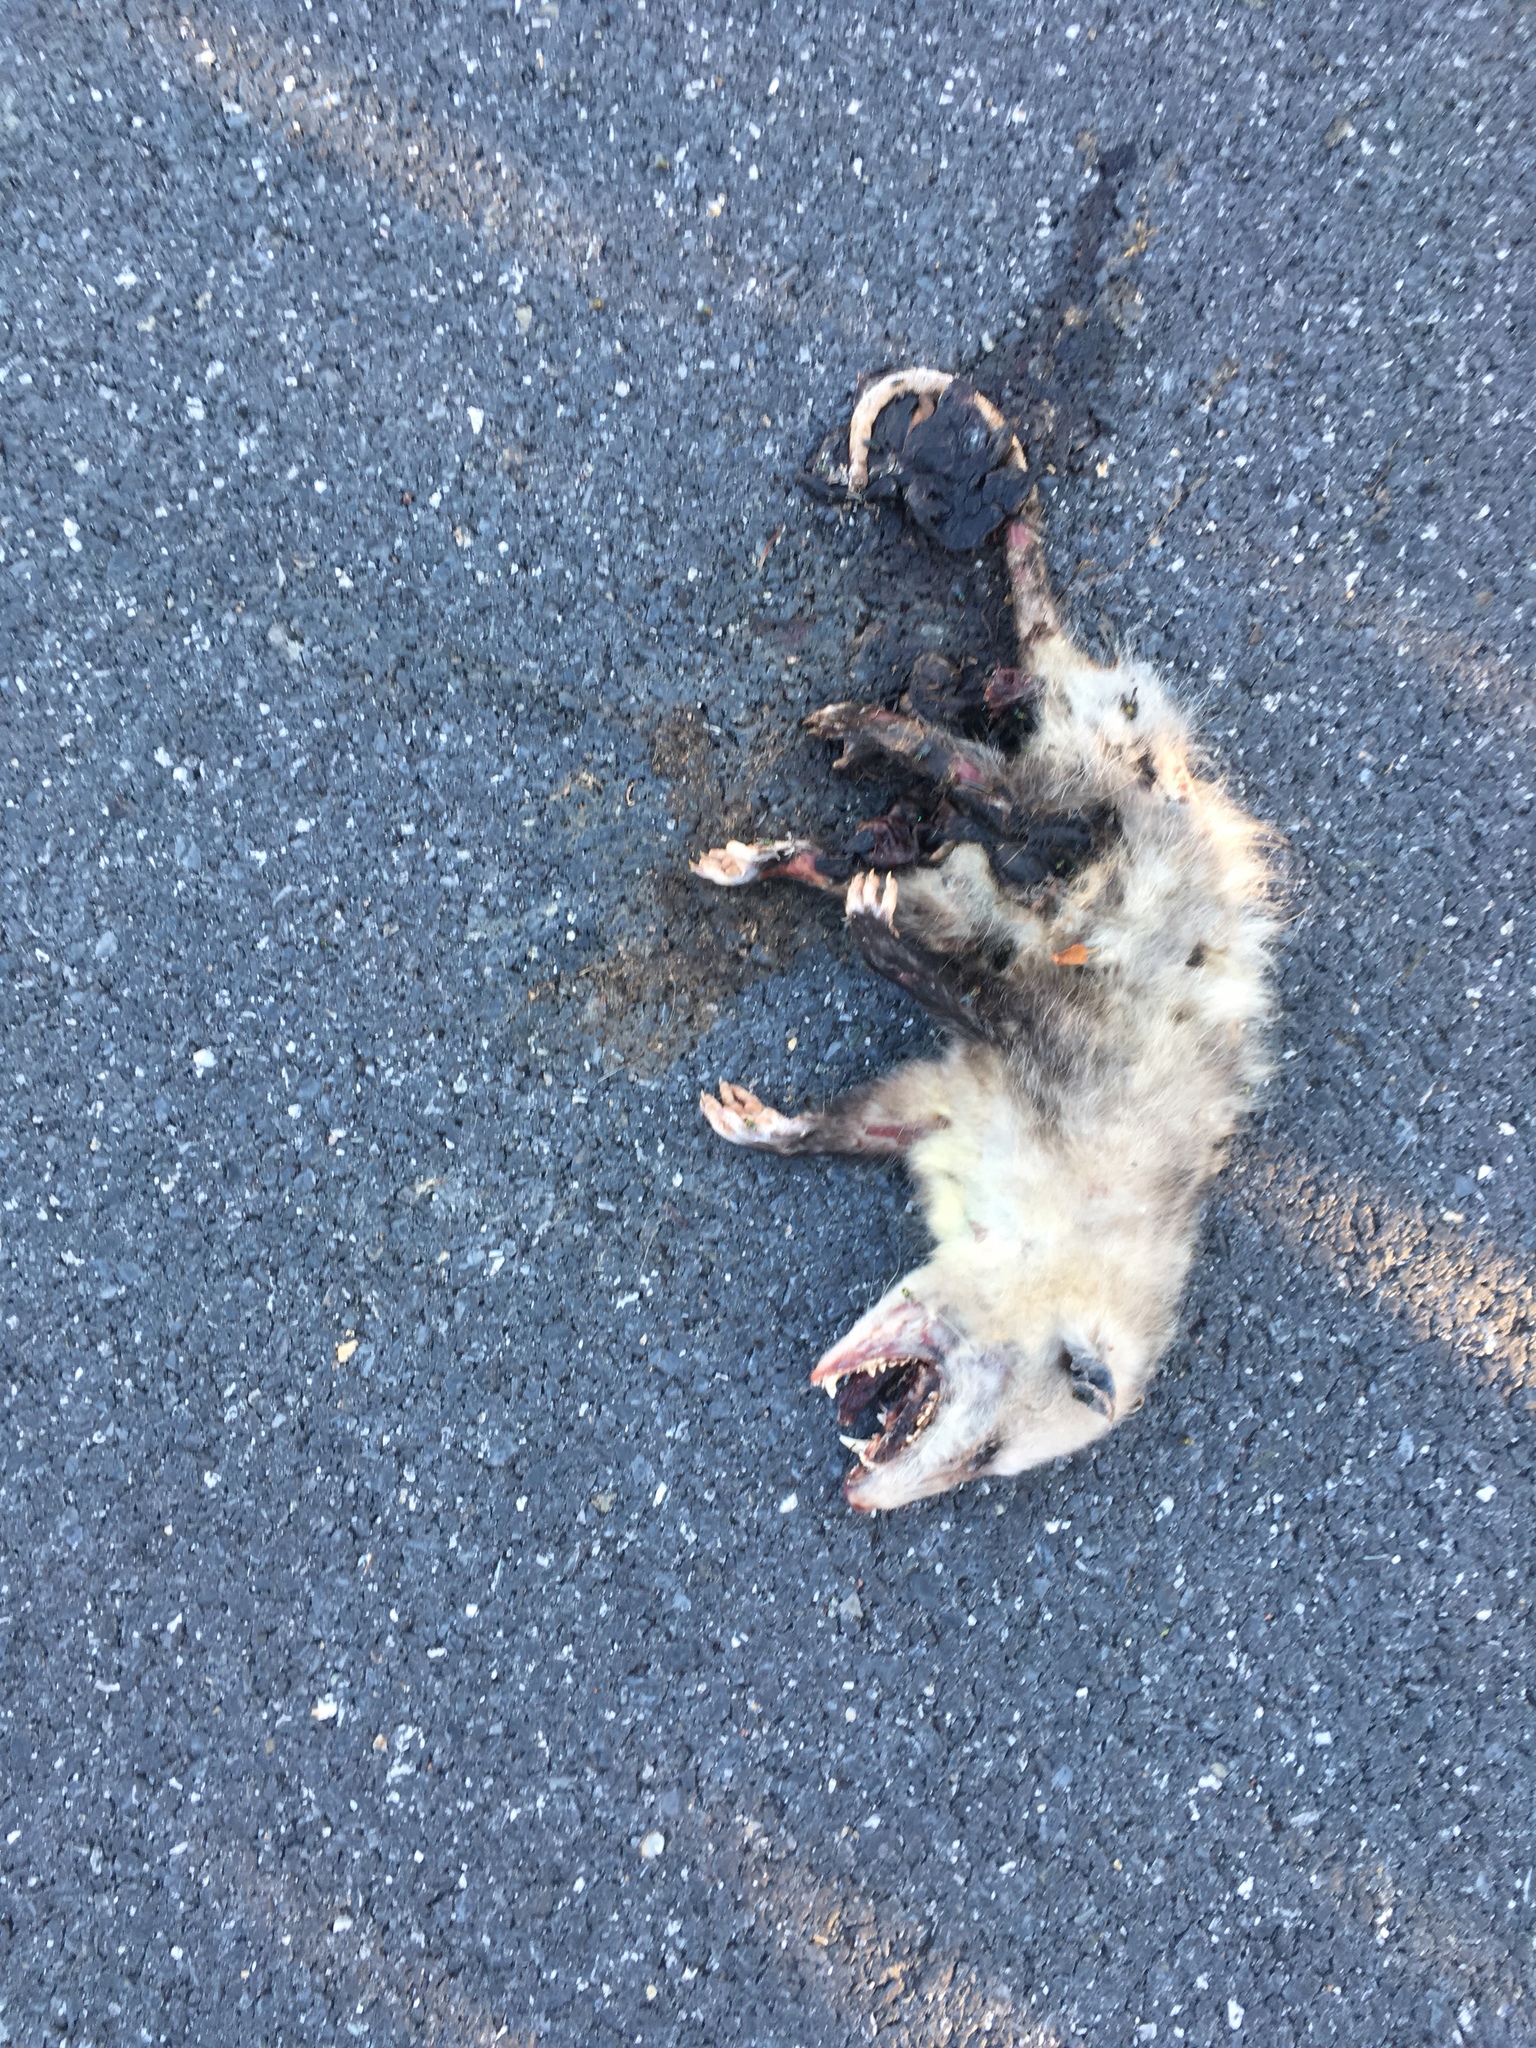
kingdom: Animalia
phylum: Chordata
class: Mammalia
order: Didelphimorphia
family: Didelphidae
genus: Didelphis
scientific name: Didelphis virginiana
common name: Virginia opossum
